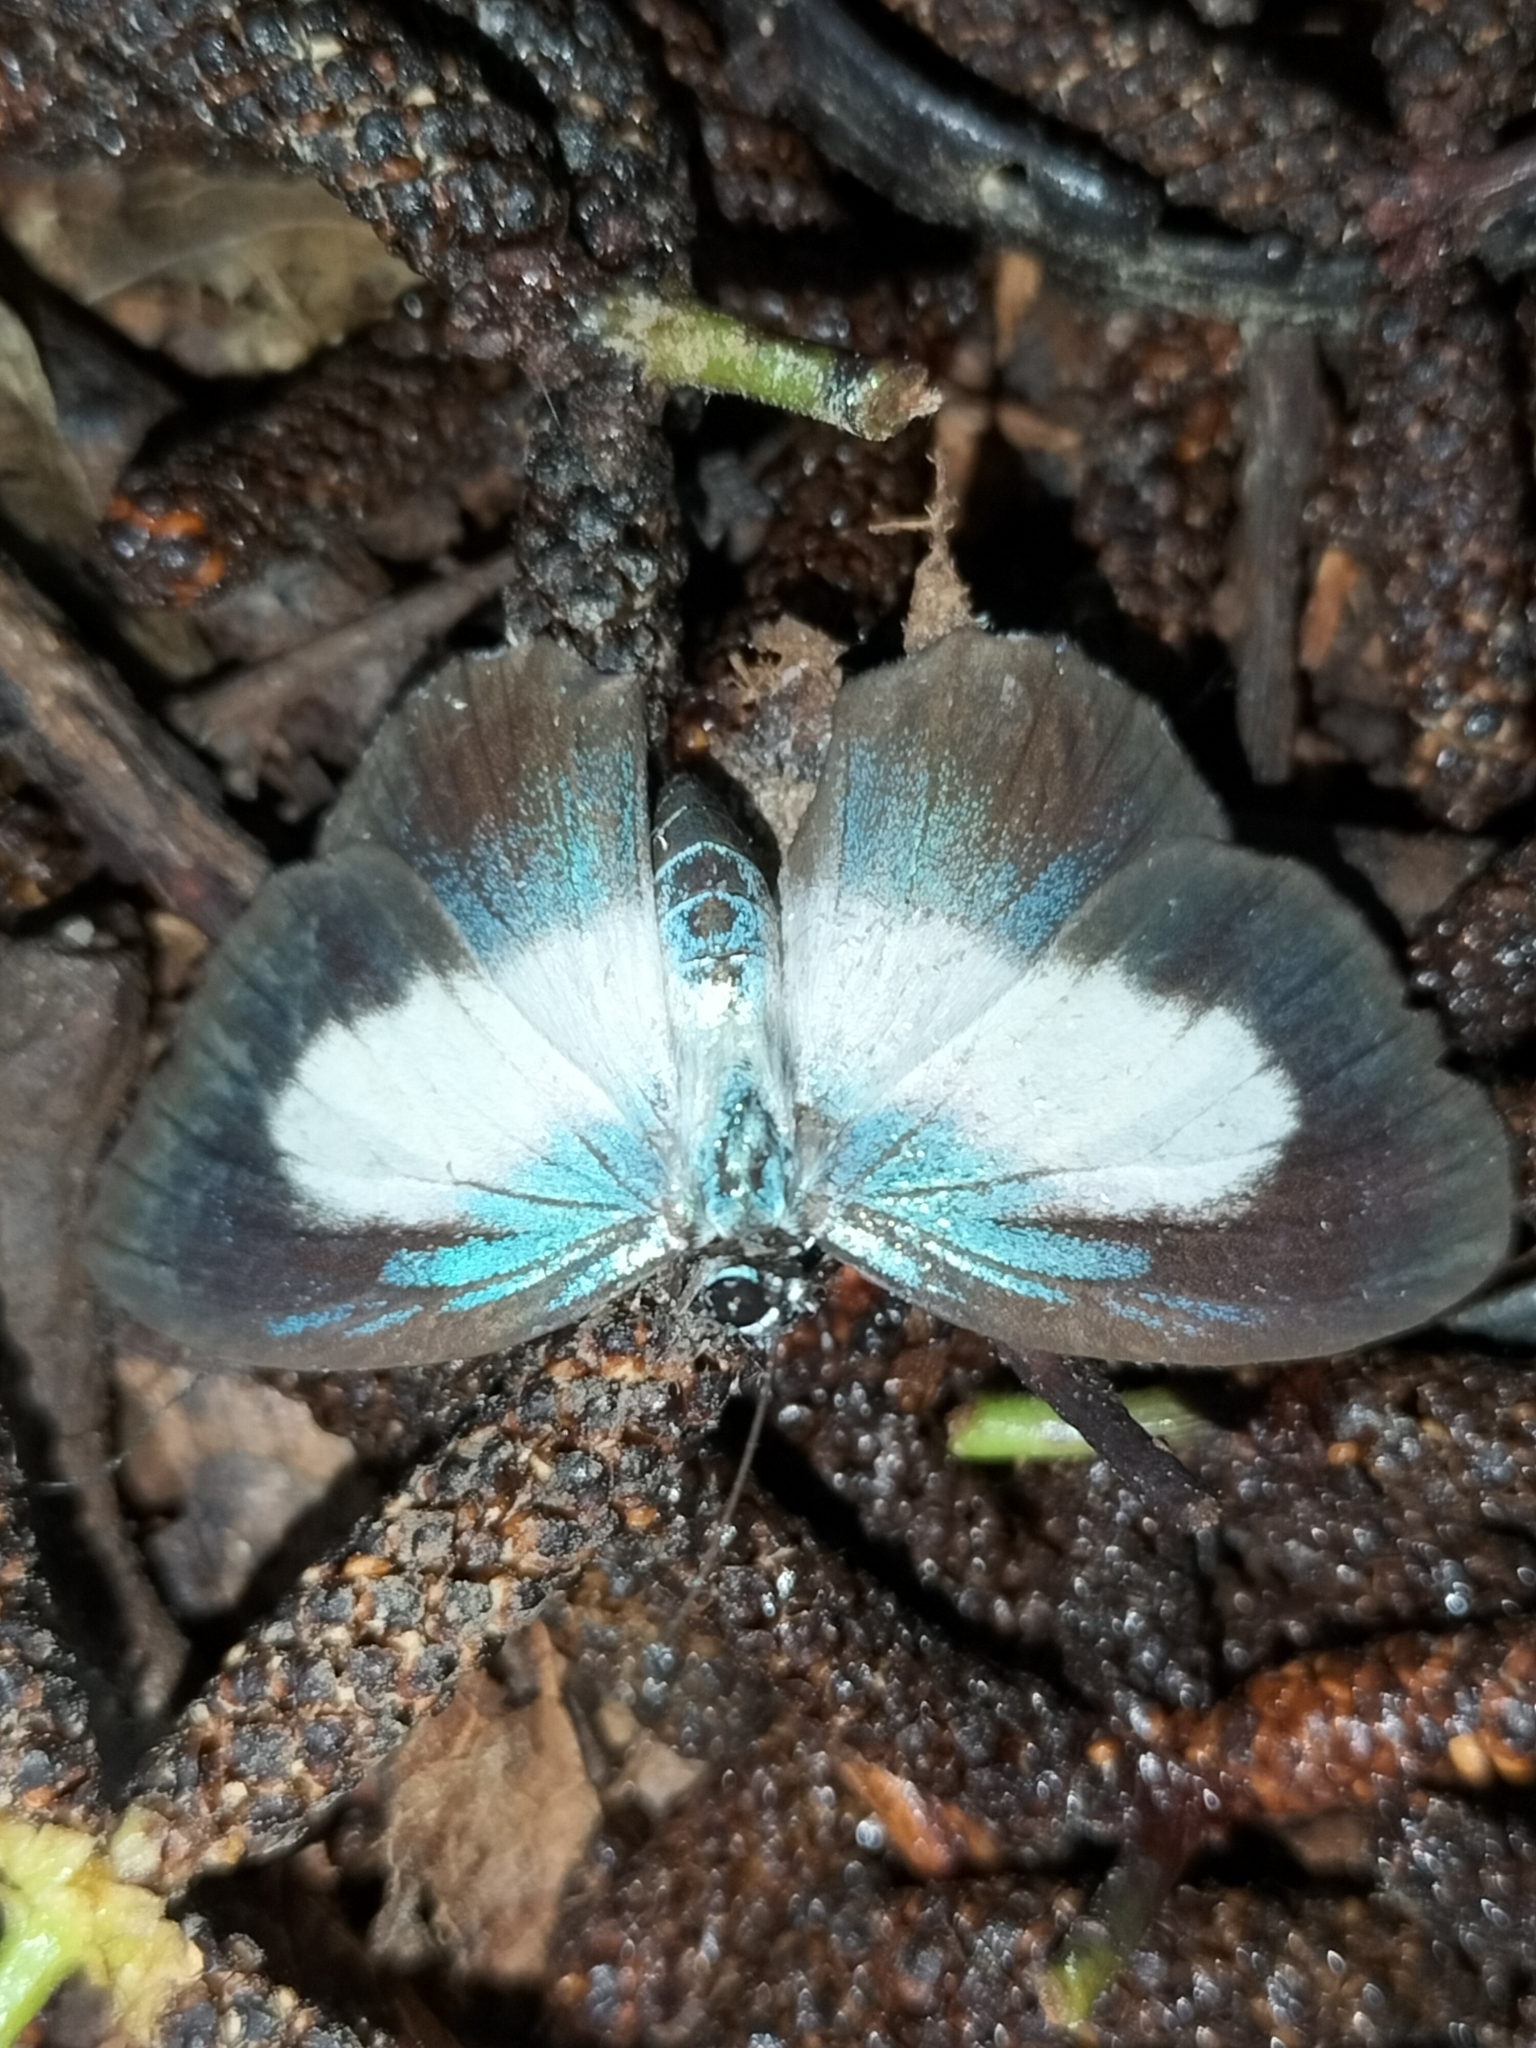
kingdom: Animalia
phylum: Arthropoda
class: Insecta
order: Lepidoptera
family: Lycaenidae
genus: Danis
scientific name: Danis danis
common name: Large green-banded blue
